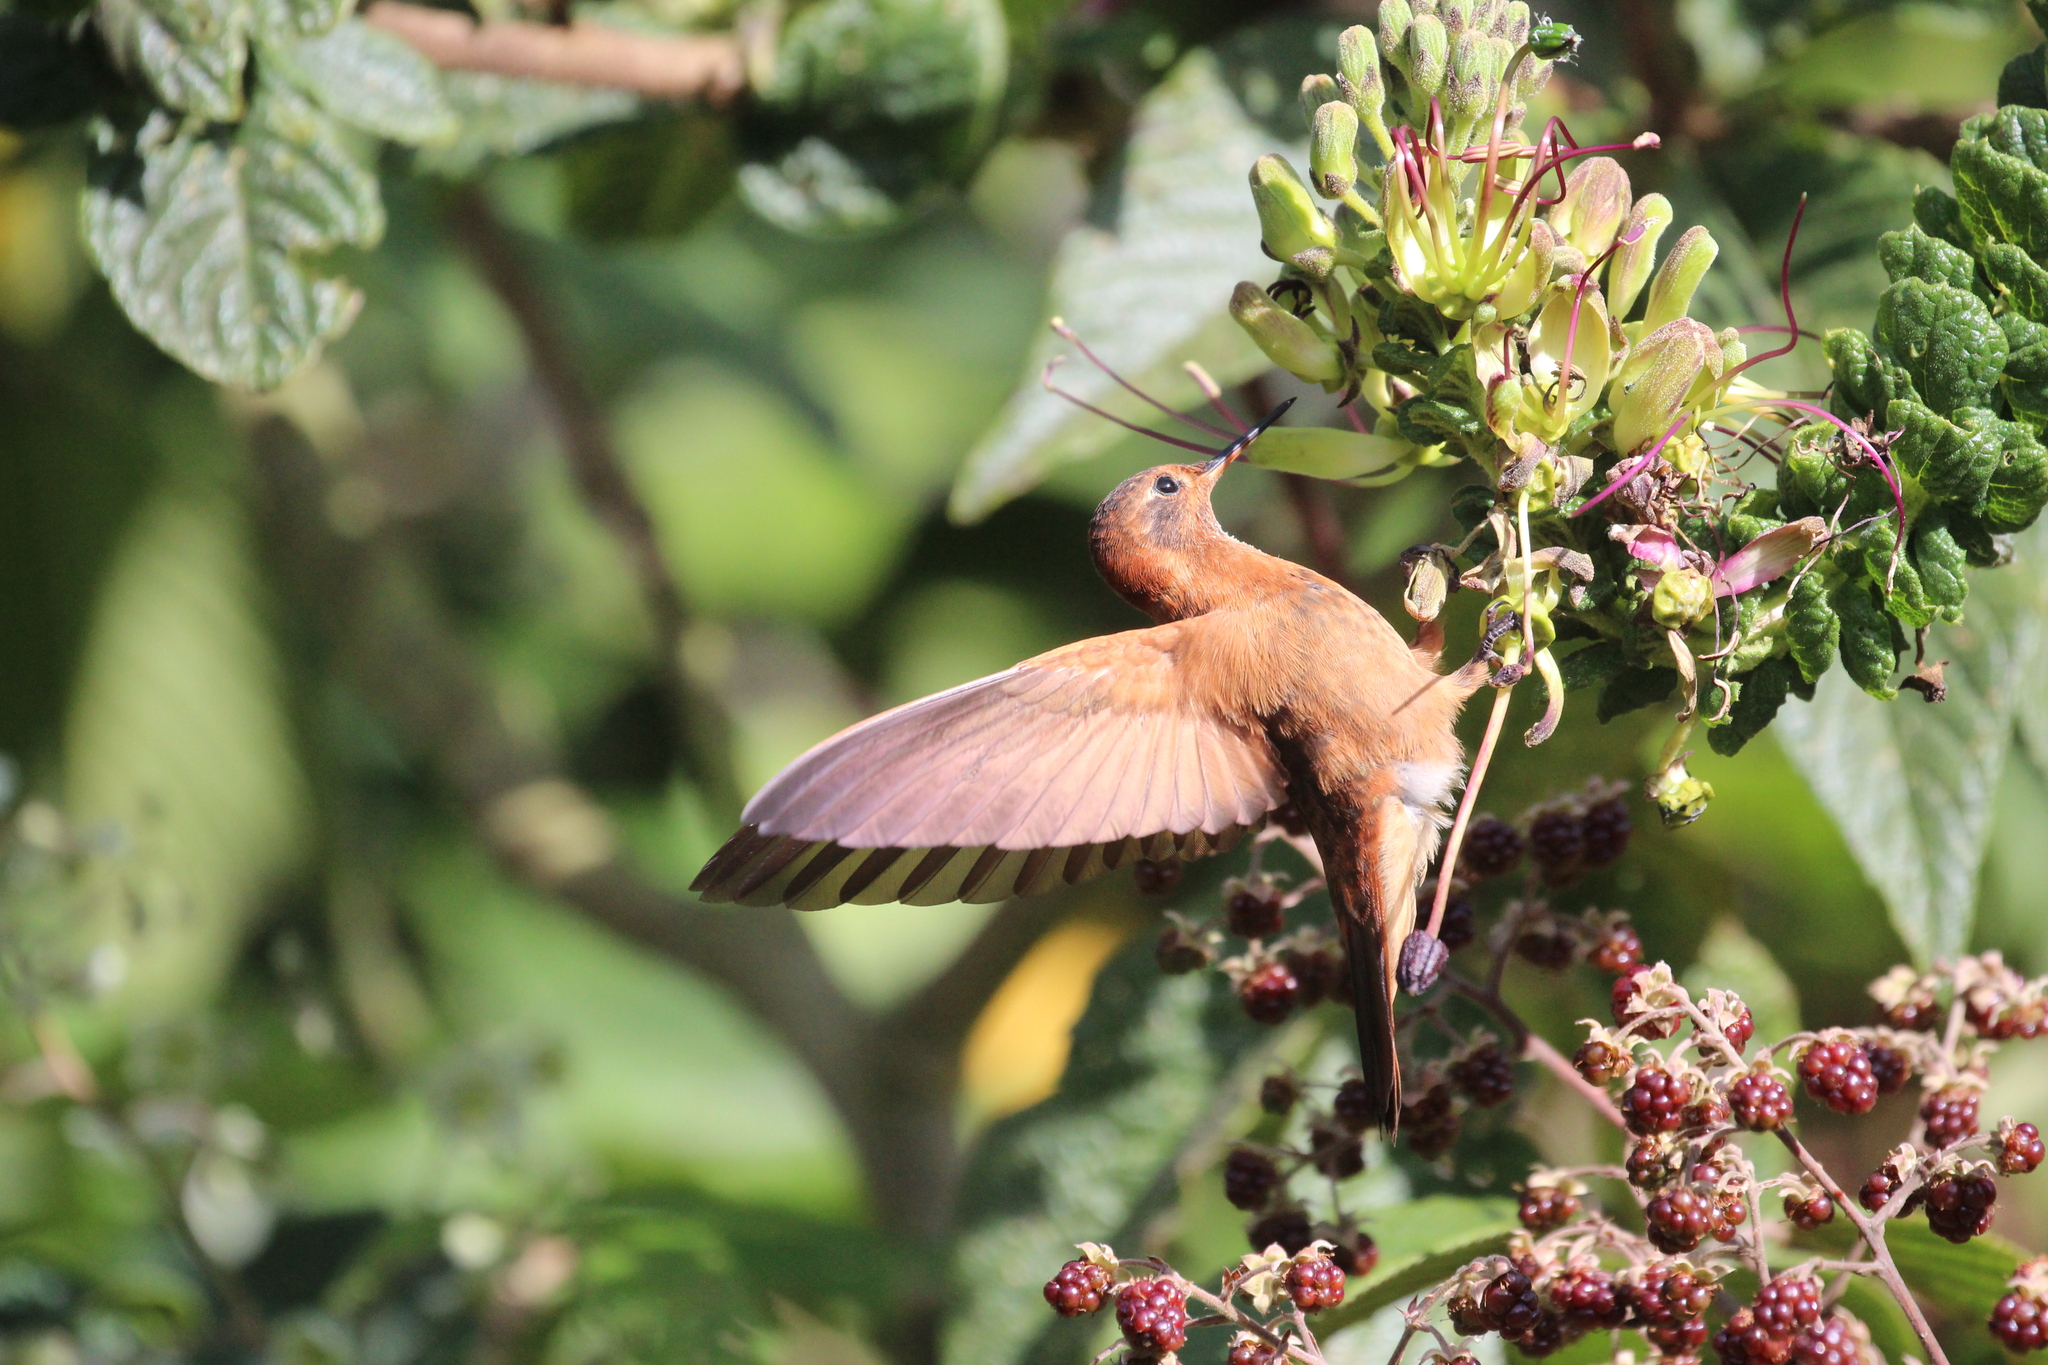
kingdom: Animalia
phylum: Chordata
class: Aves
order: Apodiformes
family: Trochilidae
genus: Aglaeactis
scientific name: Aglaeactis cupripennis
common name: Shining sunbeam
